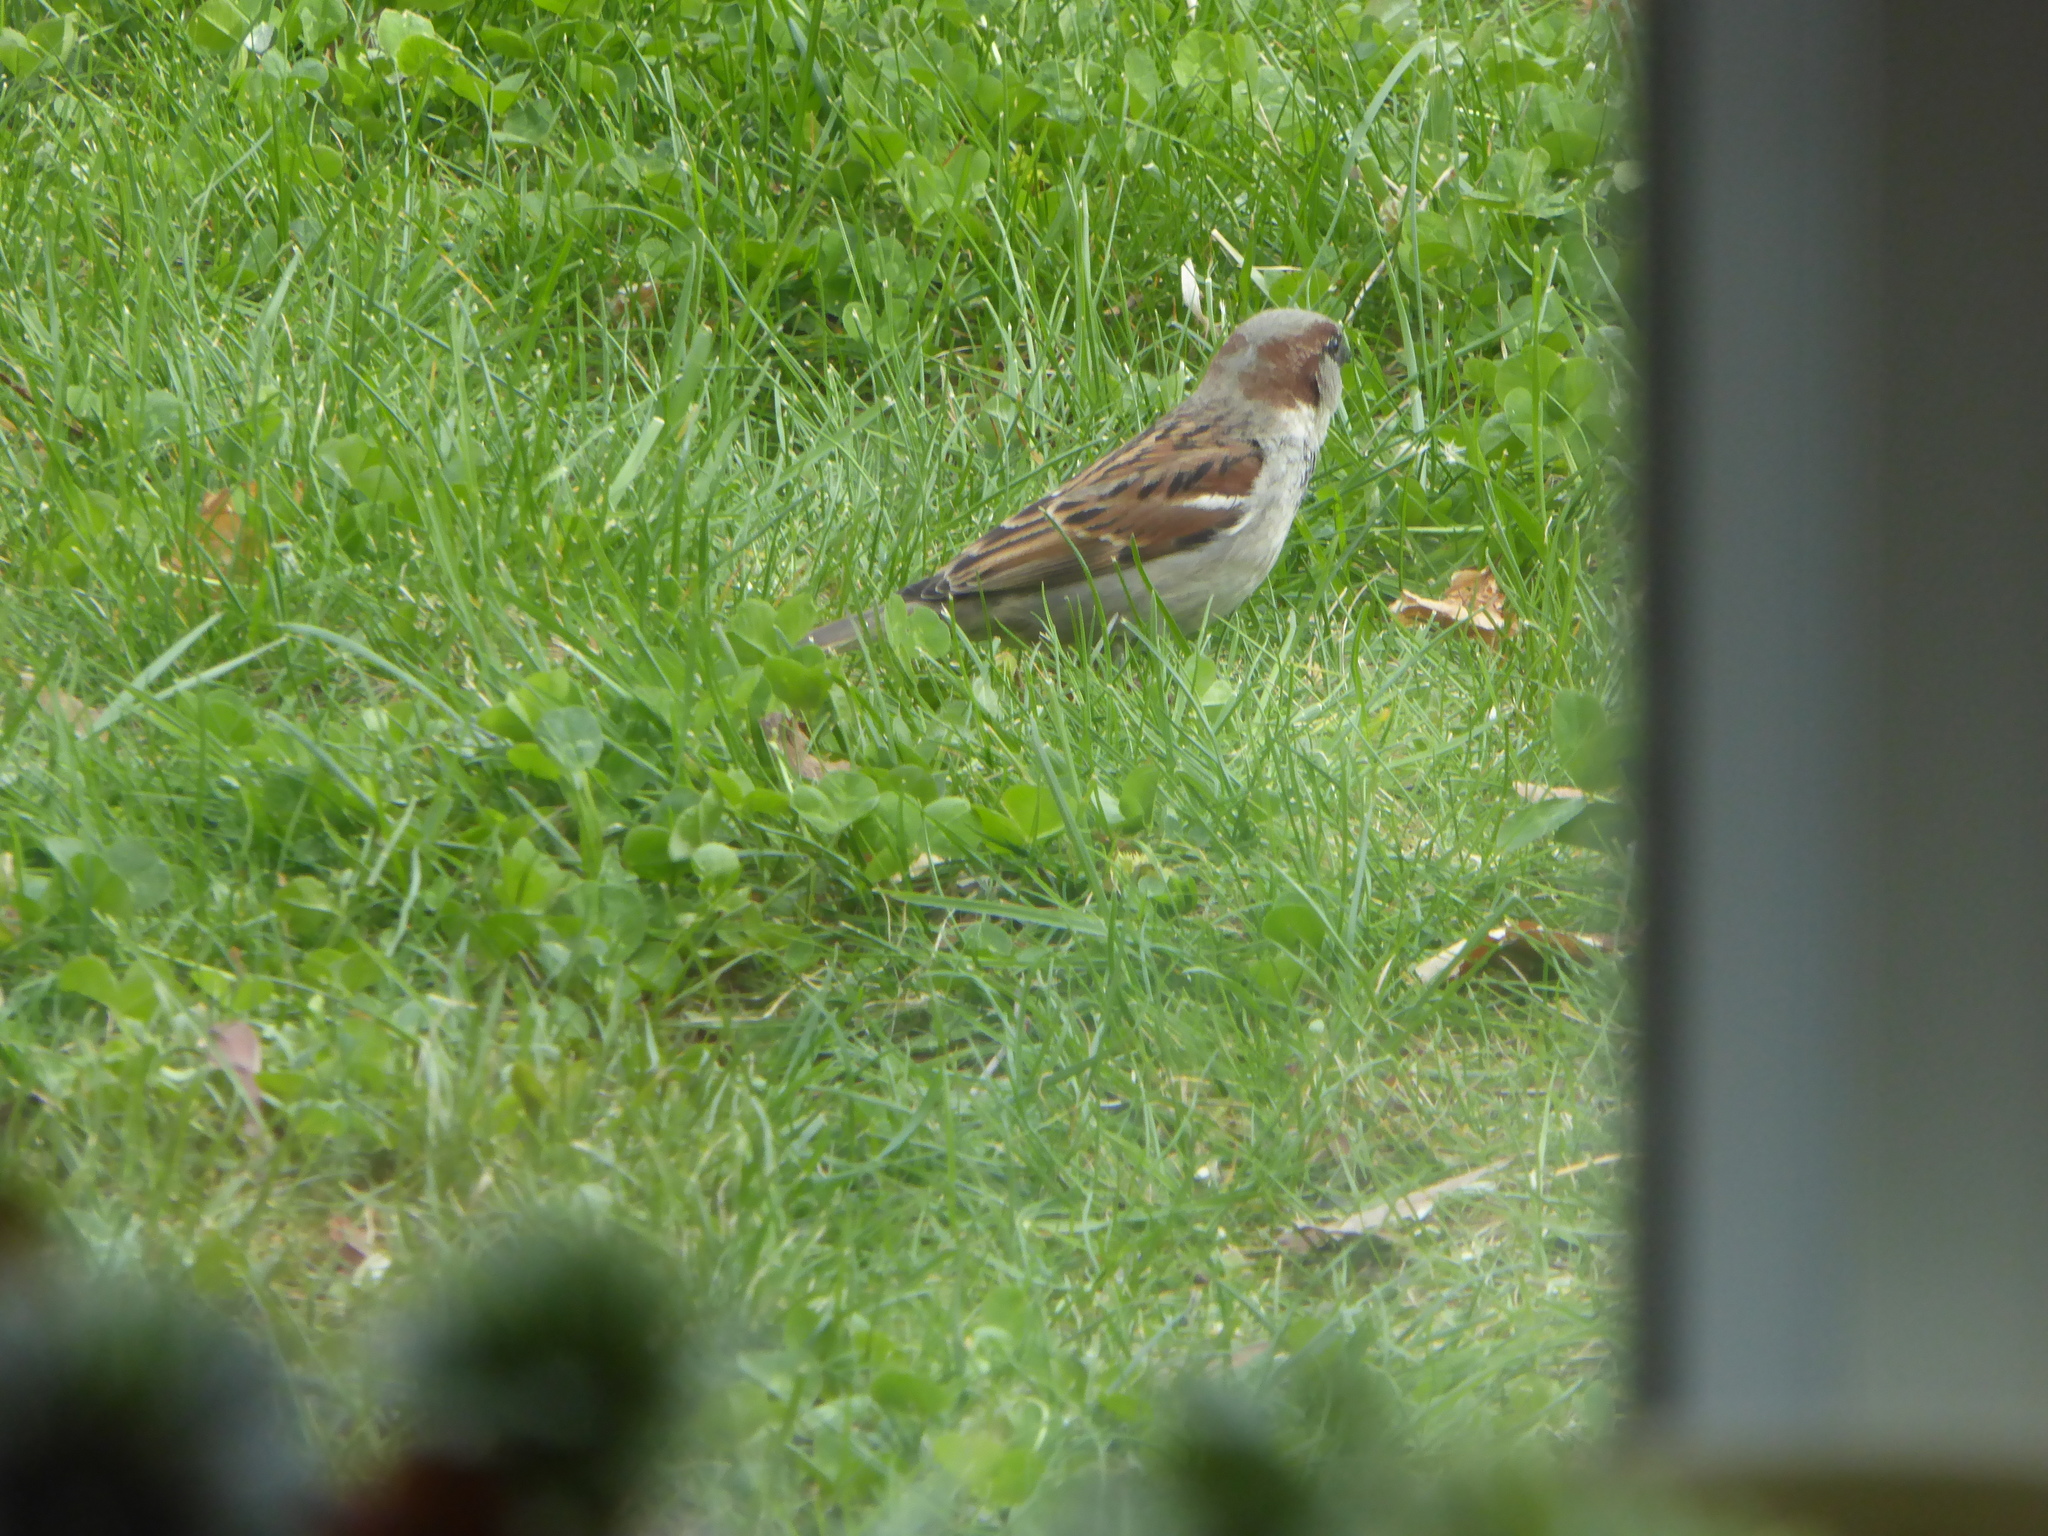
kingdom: Animalia
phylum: Chordata
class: Aves
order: Passeriformes
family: Passeridae
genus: Passer
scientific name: Passer domesticus
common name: House sparrow
